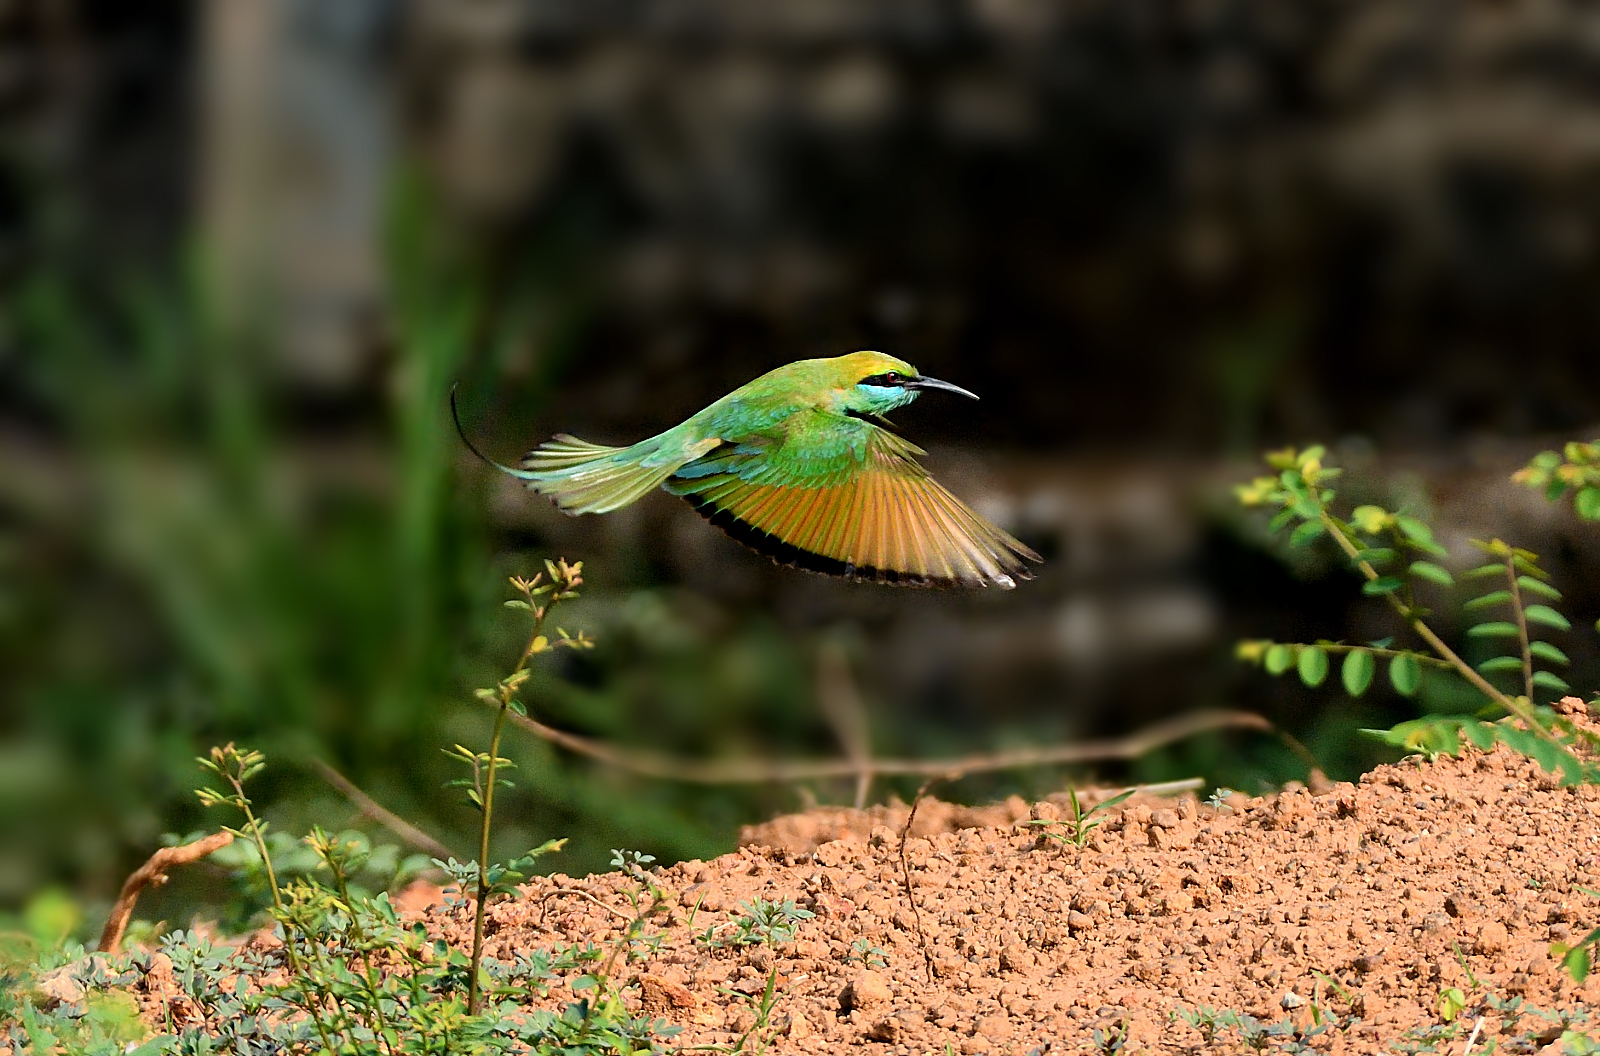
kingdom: Animalia
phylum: Chordata
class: Aves
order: Coraciiformes
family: Meropidae
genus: Merops
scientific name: Merops orientalis
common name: Green bee-eater
